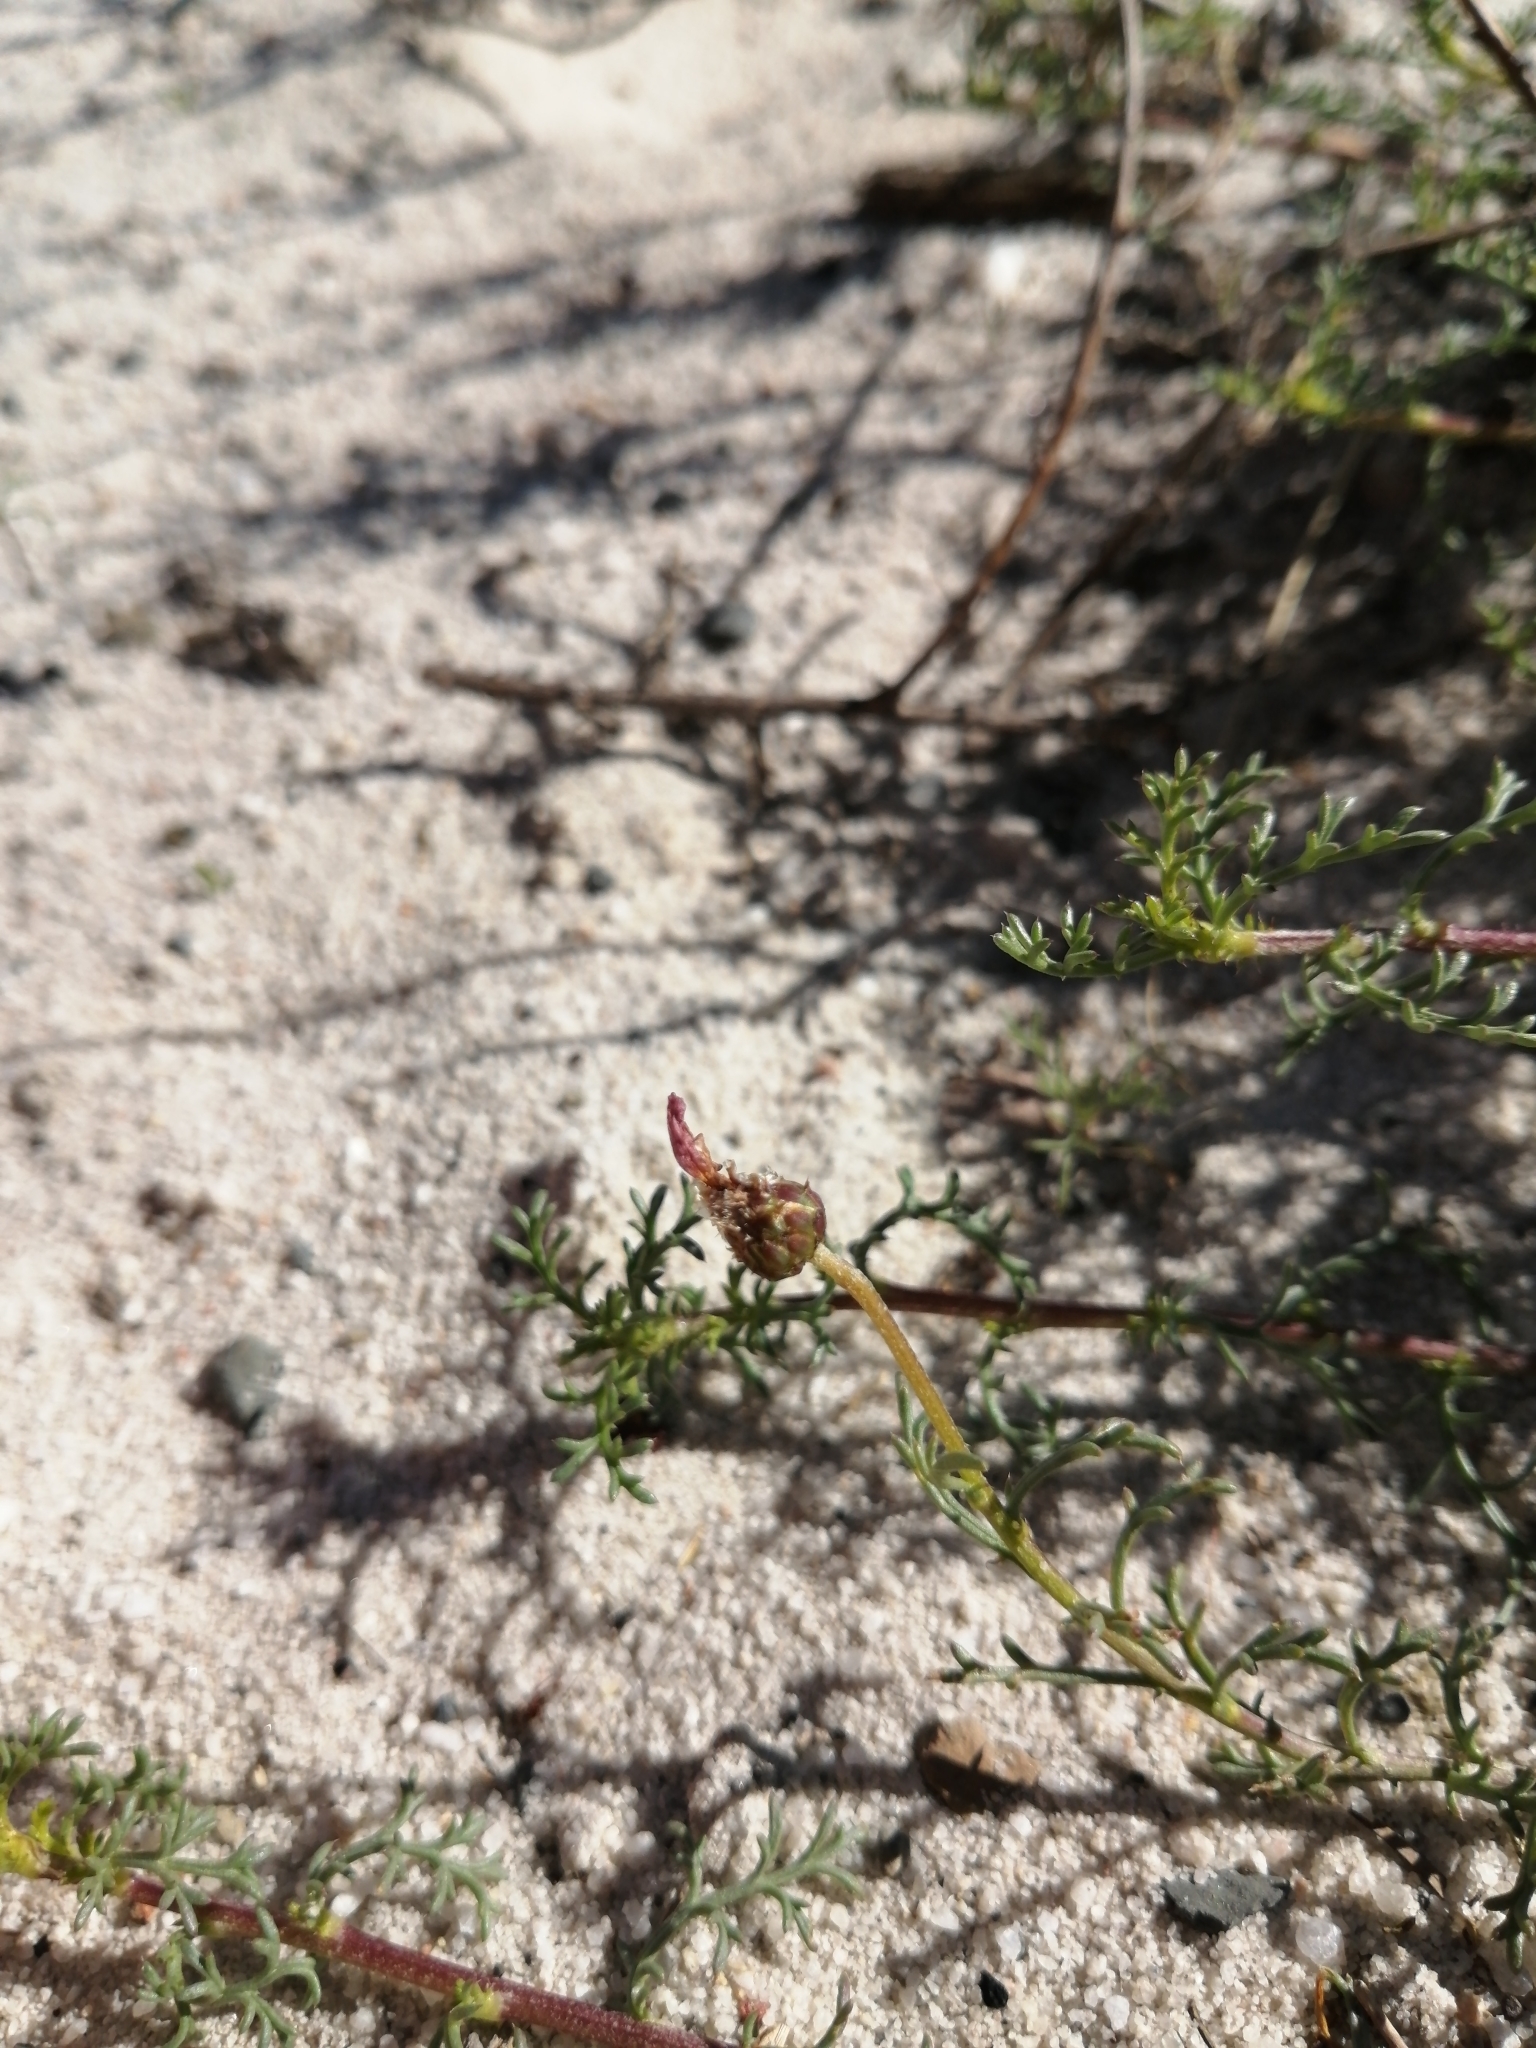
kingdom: Plantae
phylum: Tracheophyta
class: Magnoliopsida
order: Asterales
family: Asteraceae
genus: Ursinia
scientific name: Ursinia chrysanthemoides
